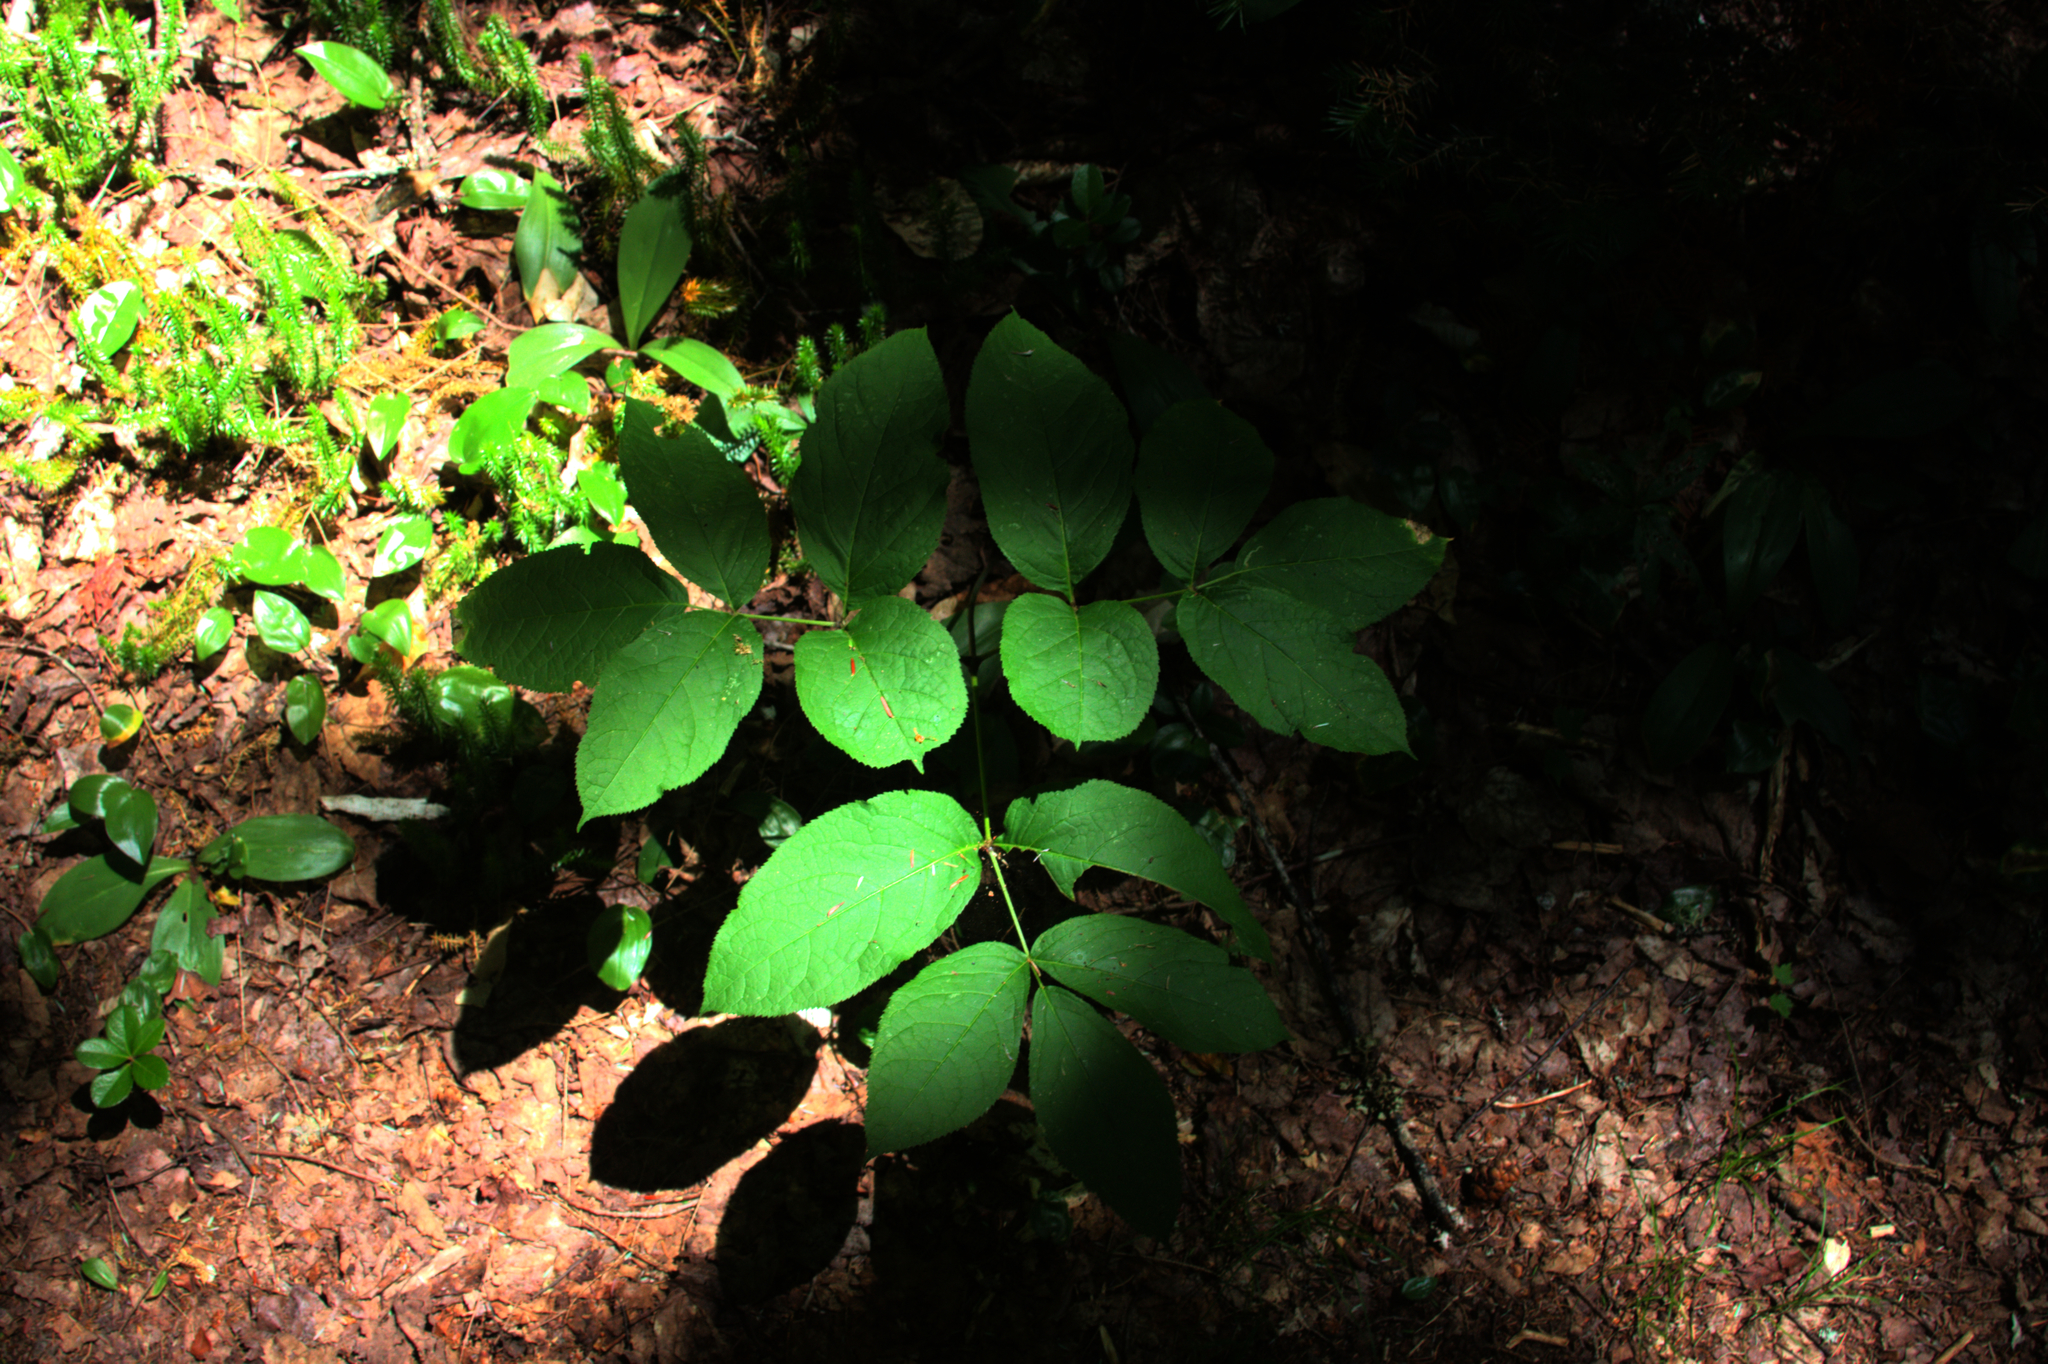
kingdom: Plantae
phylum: Tracheophyta
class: Magnoliopsida
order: Apiales
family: Araliaceae
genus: Aralia
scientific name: Aralia nudicaulis
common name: Wild sarsaparilla
